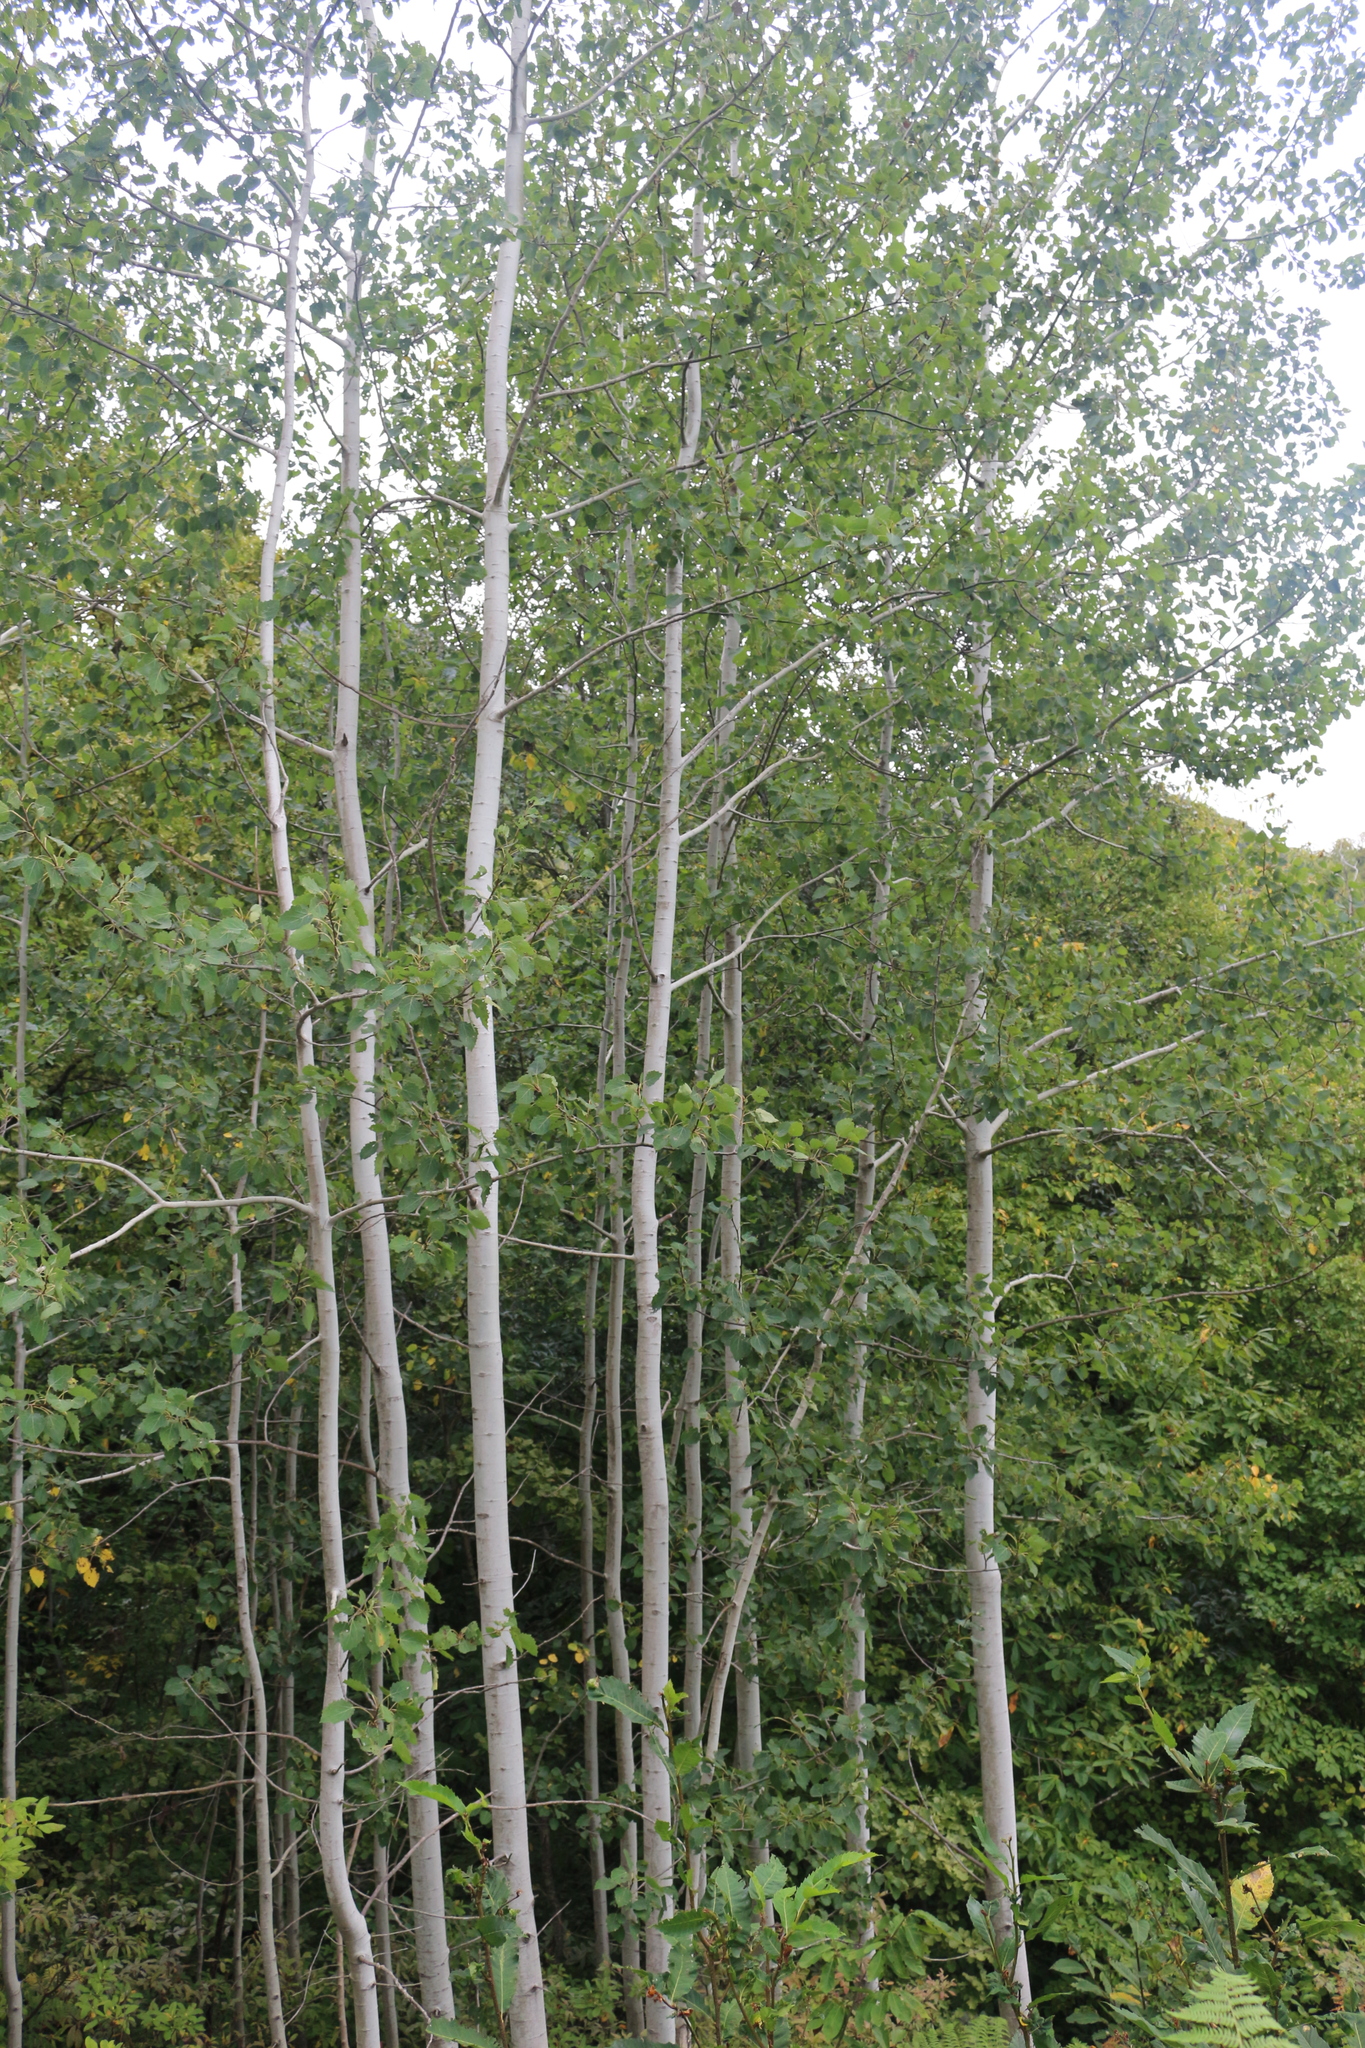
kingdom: Plantae
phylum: Tracheophyta
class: Magnoliopsida
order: Malpighiales
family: Salicaceae
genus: Populus
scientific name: Populus tremula
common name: European aspen
